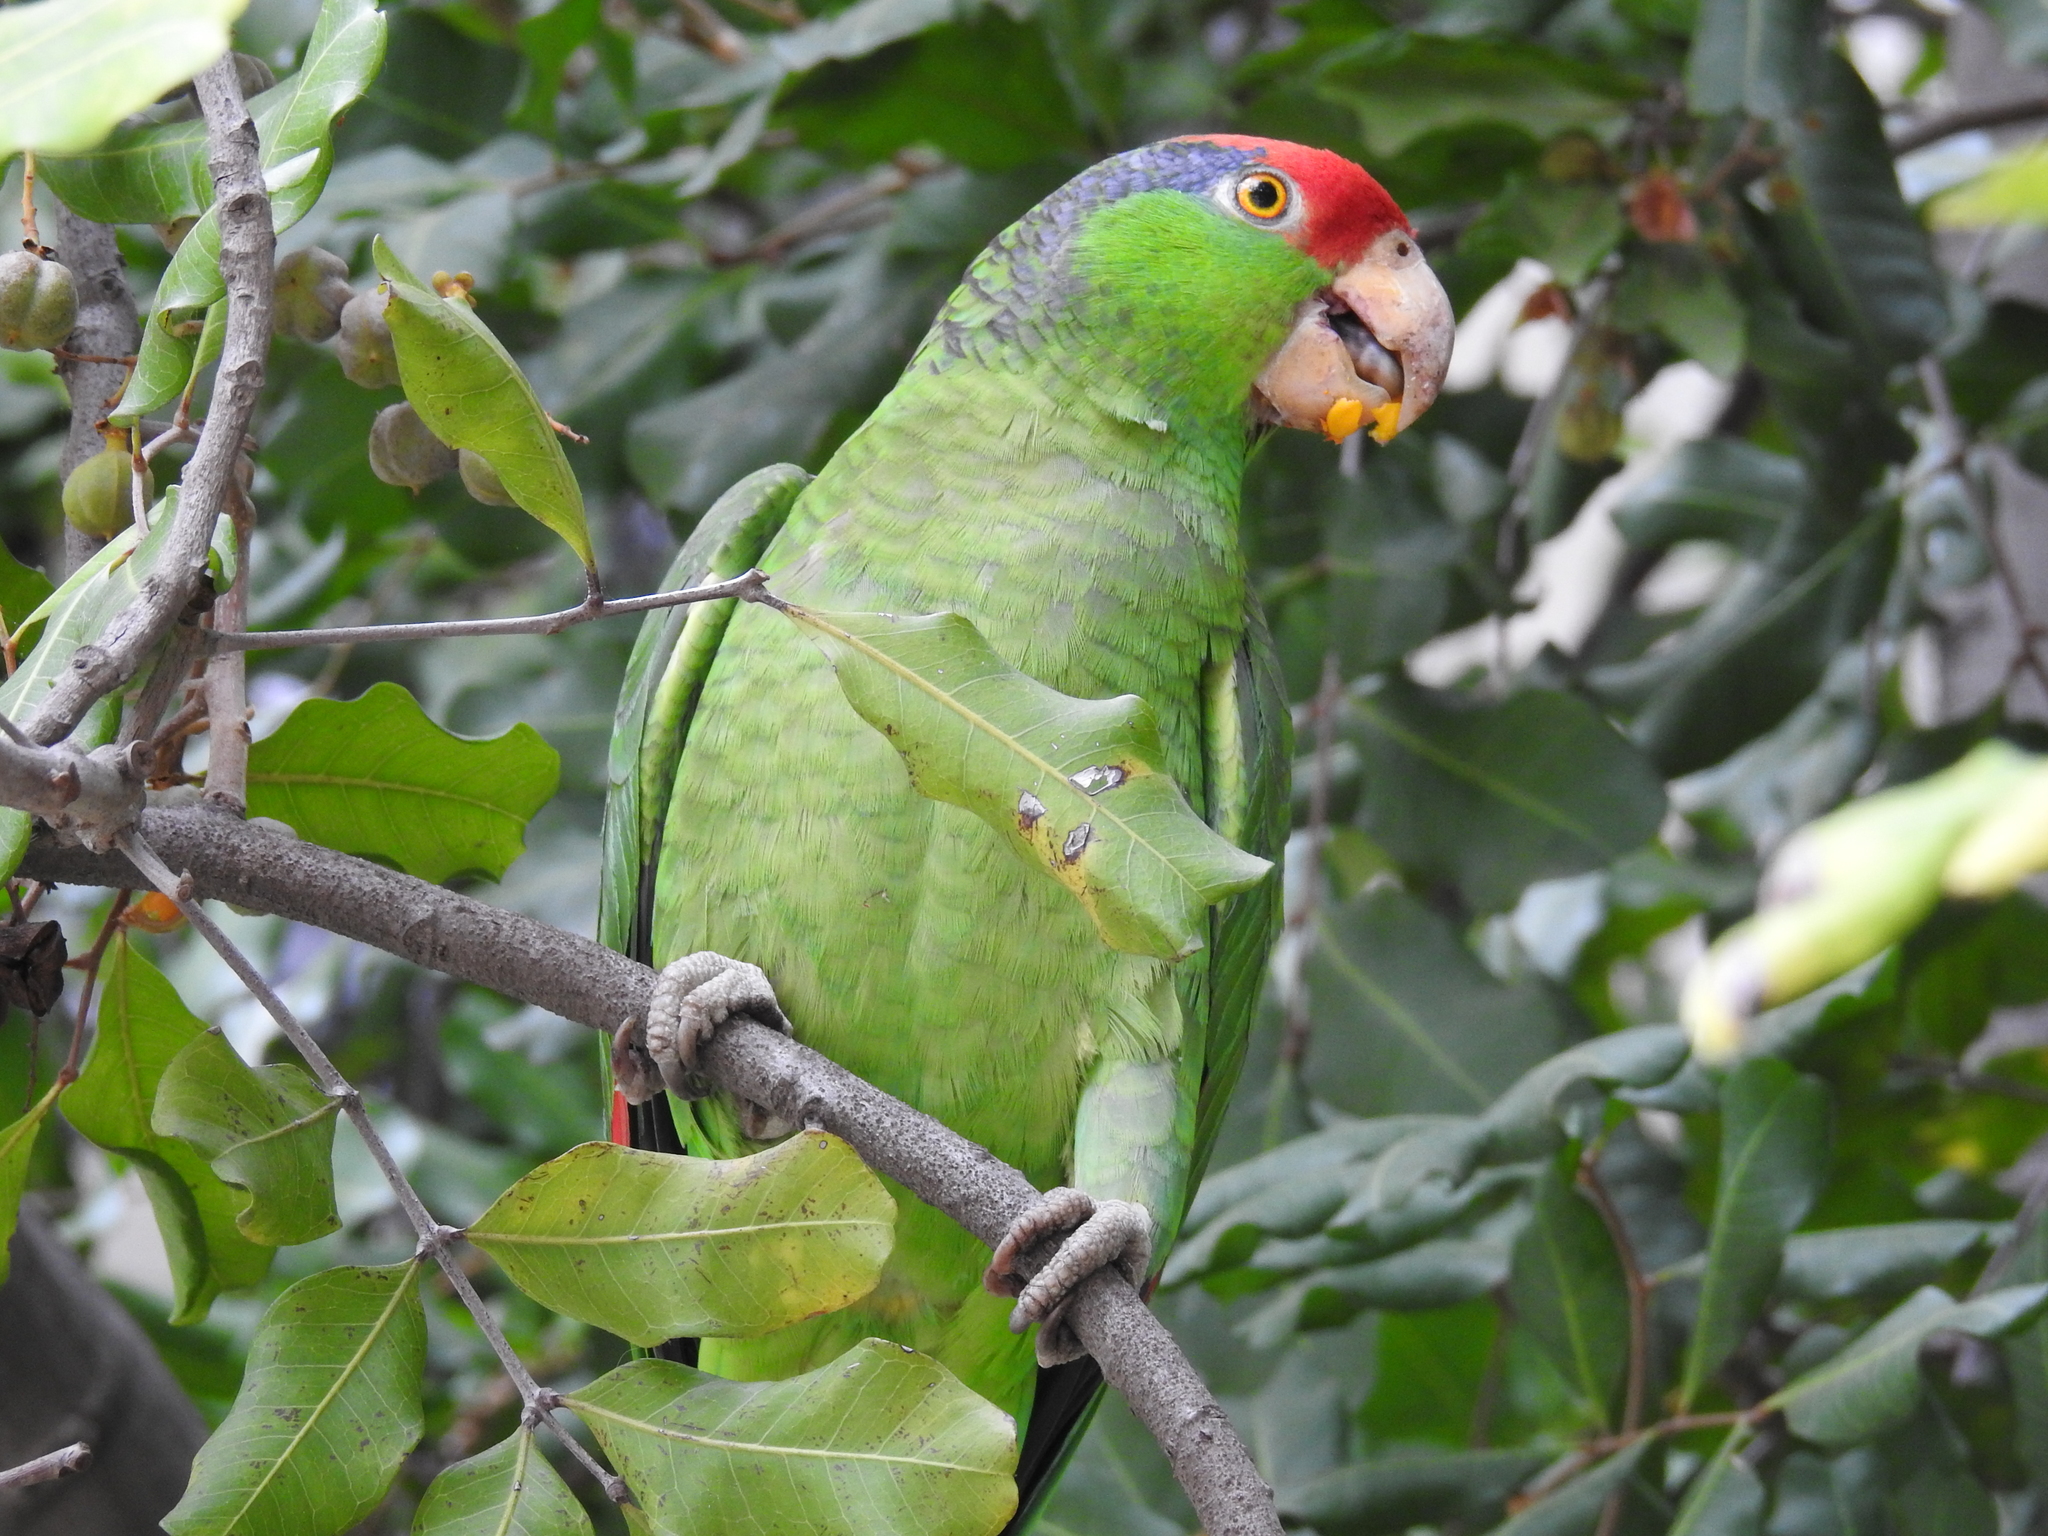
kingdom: Animalia
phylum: Chordata
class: Aves
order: Psittaciformes
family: Psittacidae
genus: Amazona
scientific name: Amazona viridigenalis
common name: Red-crowned amazon
